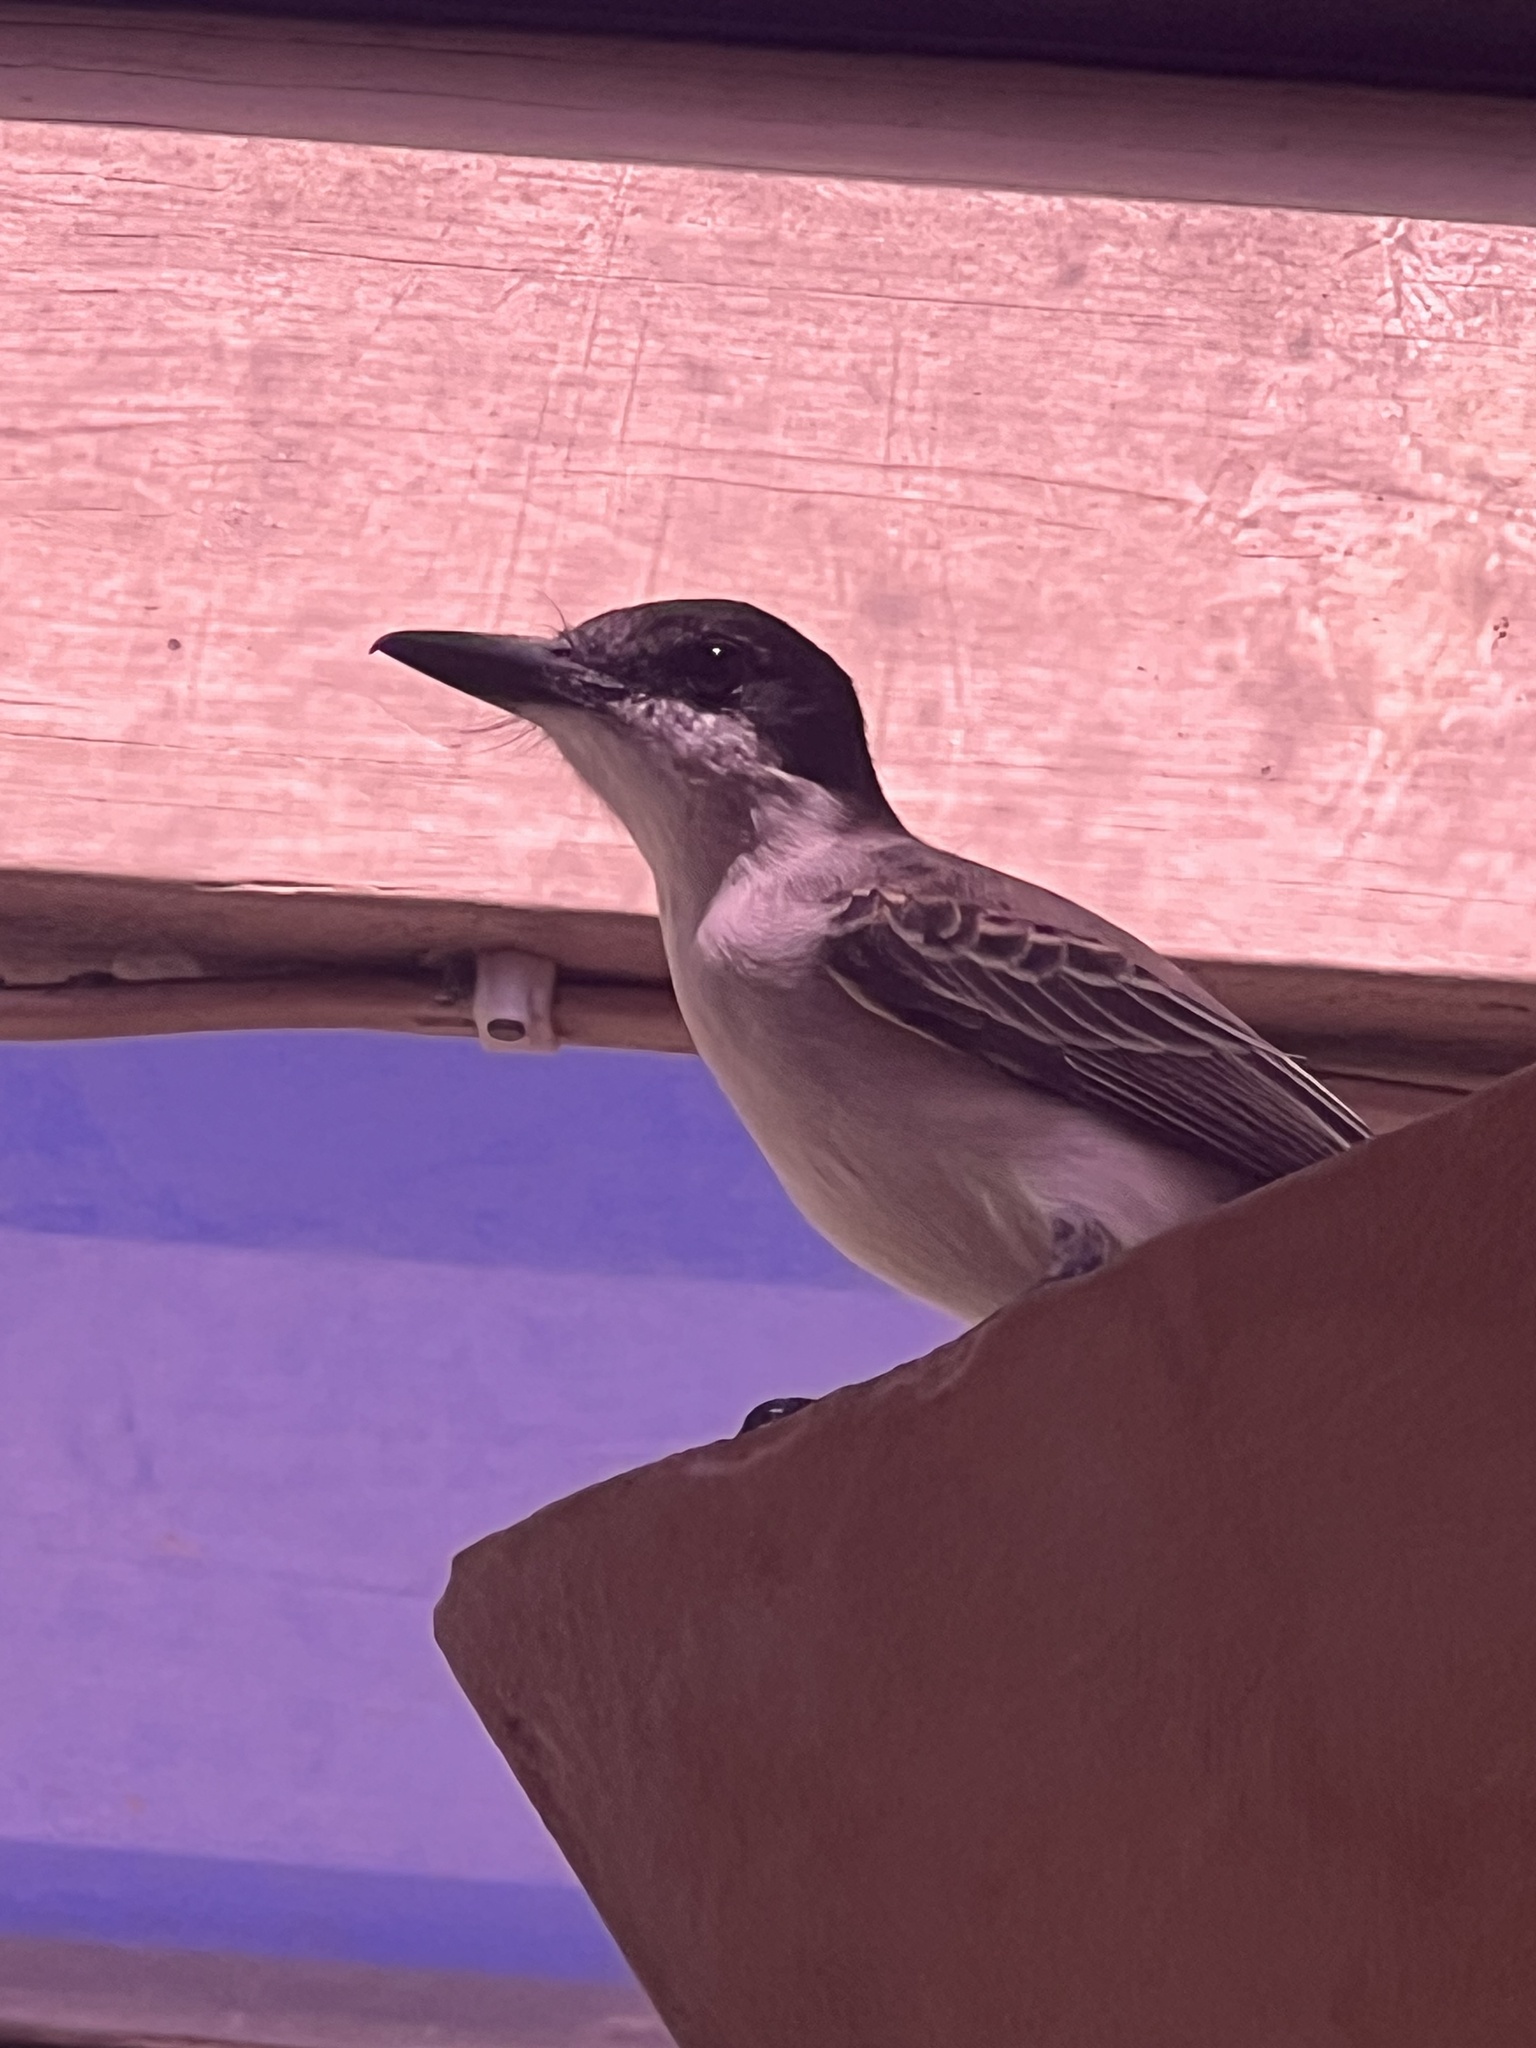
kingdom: Animalia
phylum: Chordata
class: Aves
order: Passeriformes
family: Tyrannidae
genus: Tyrannus
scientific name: Tyrannus caudifasciatus
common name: Loggerhead kingbird
